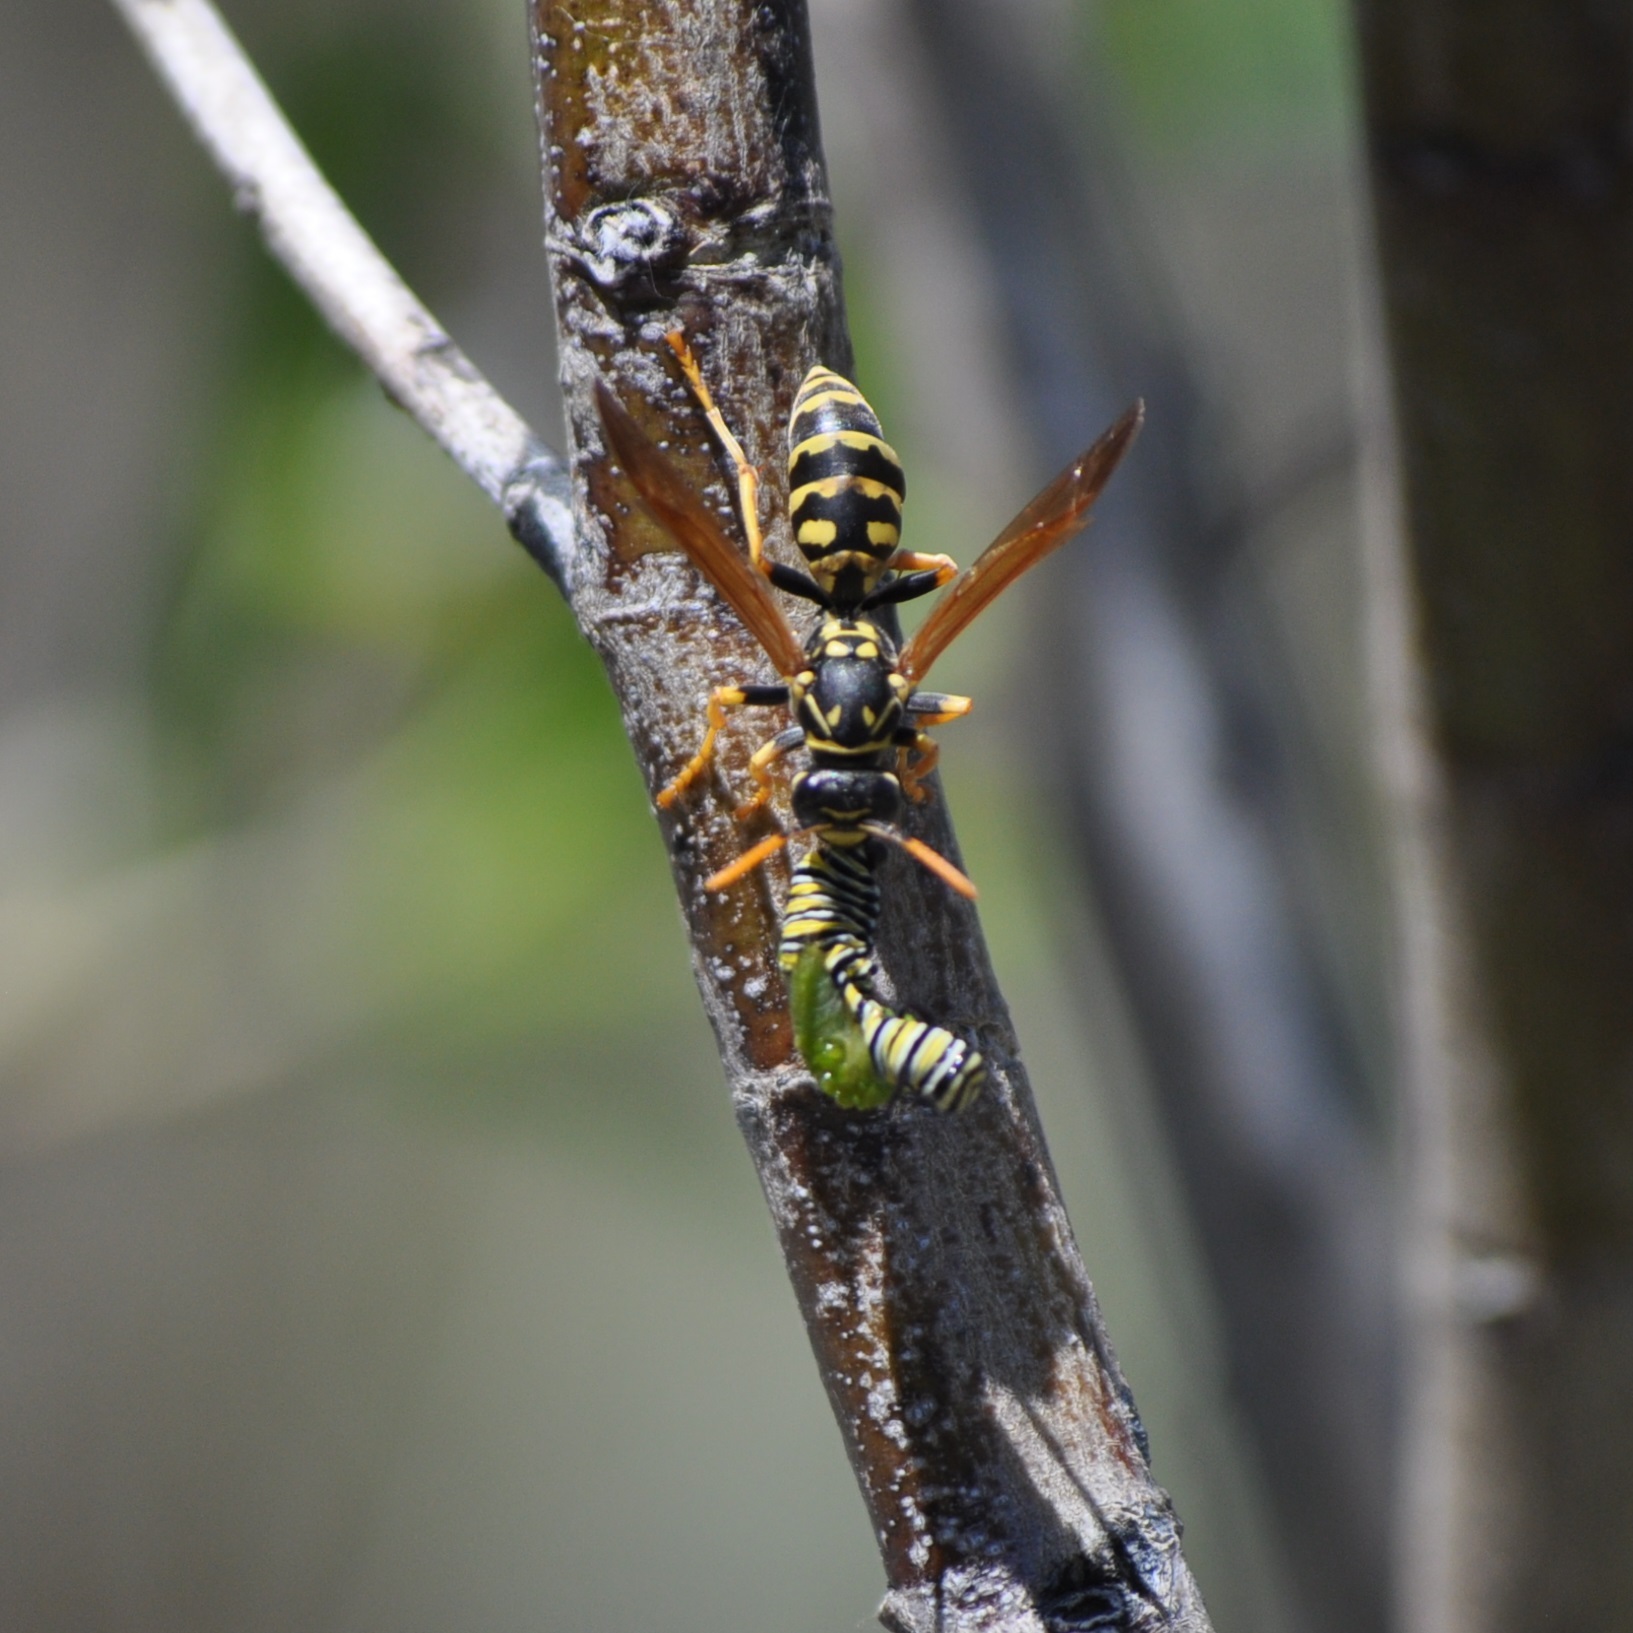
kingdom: Animalia
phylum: Arthropoda
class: Insecta
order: Hymenoptera
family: Eumenidae
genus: Polistes
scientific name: Polistes dominula
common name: Paper wasp
